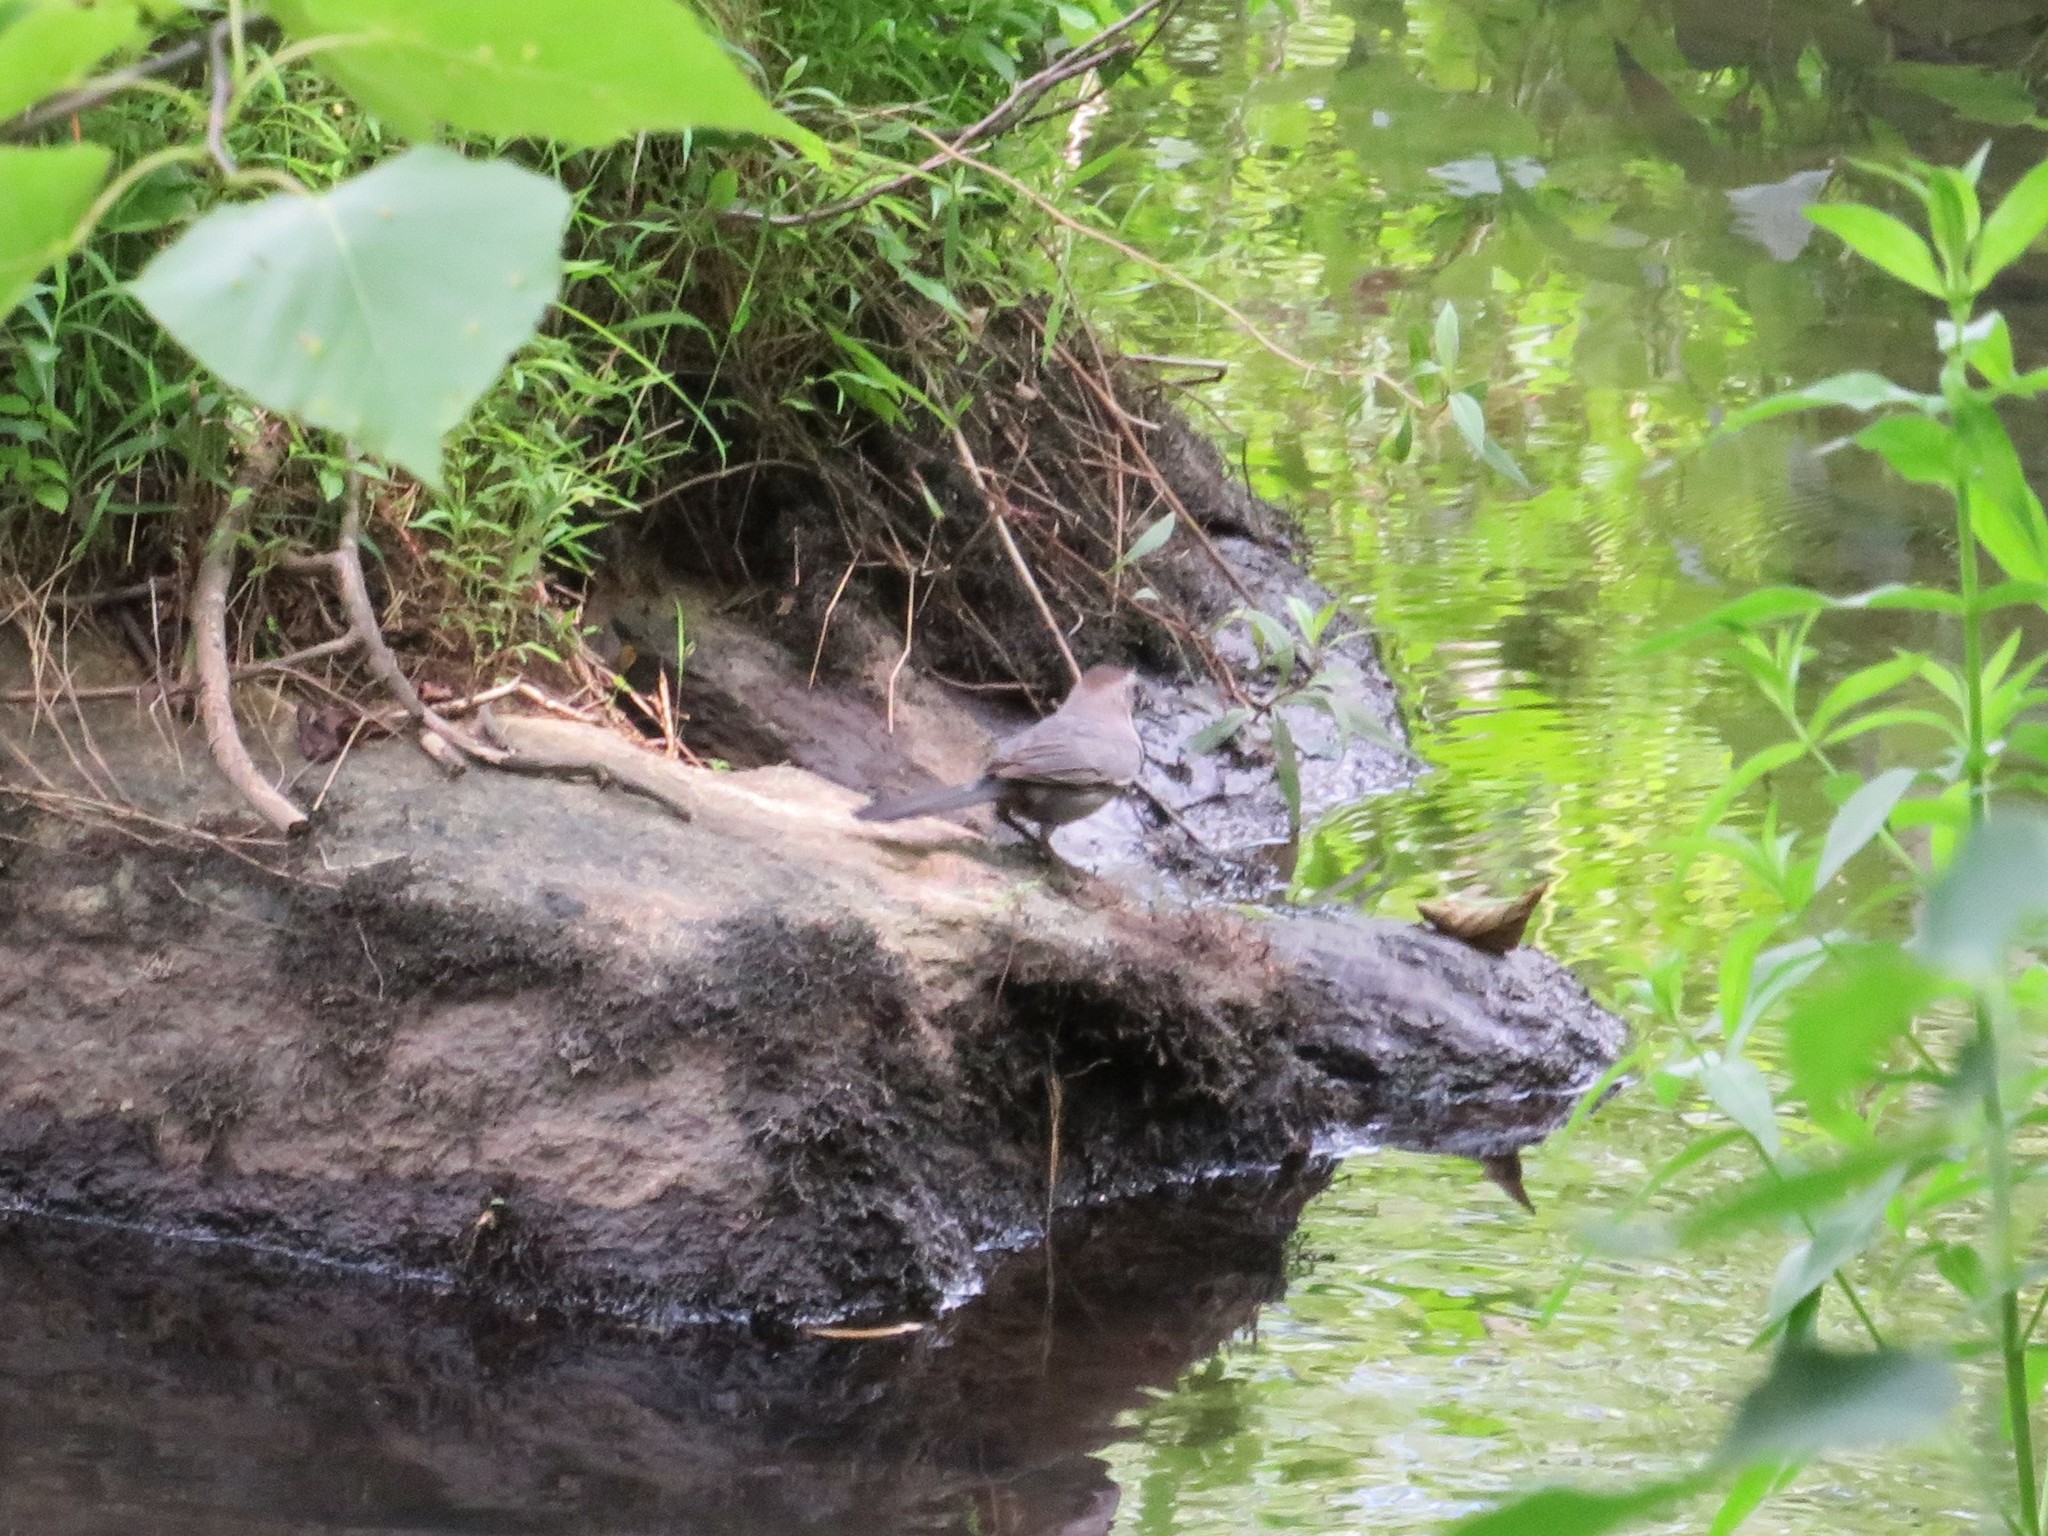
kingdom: Animalia
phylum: Chordata
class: Aves
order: Passeriformes
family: Mimidae
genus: Dumetella
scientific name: Dumetella carolinensis
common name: Gray catbird
